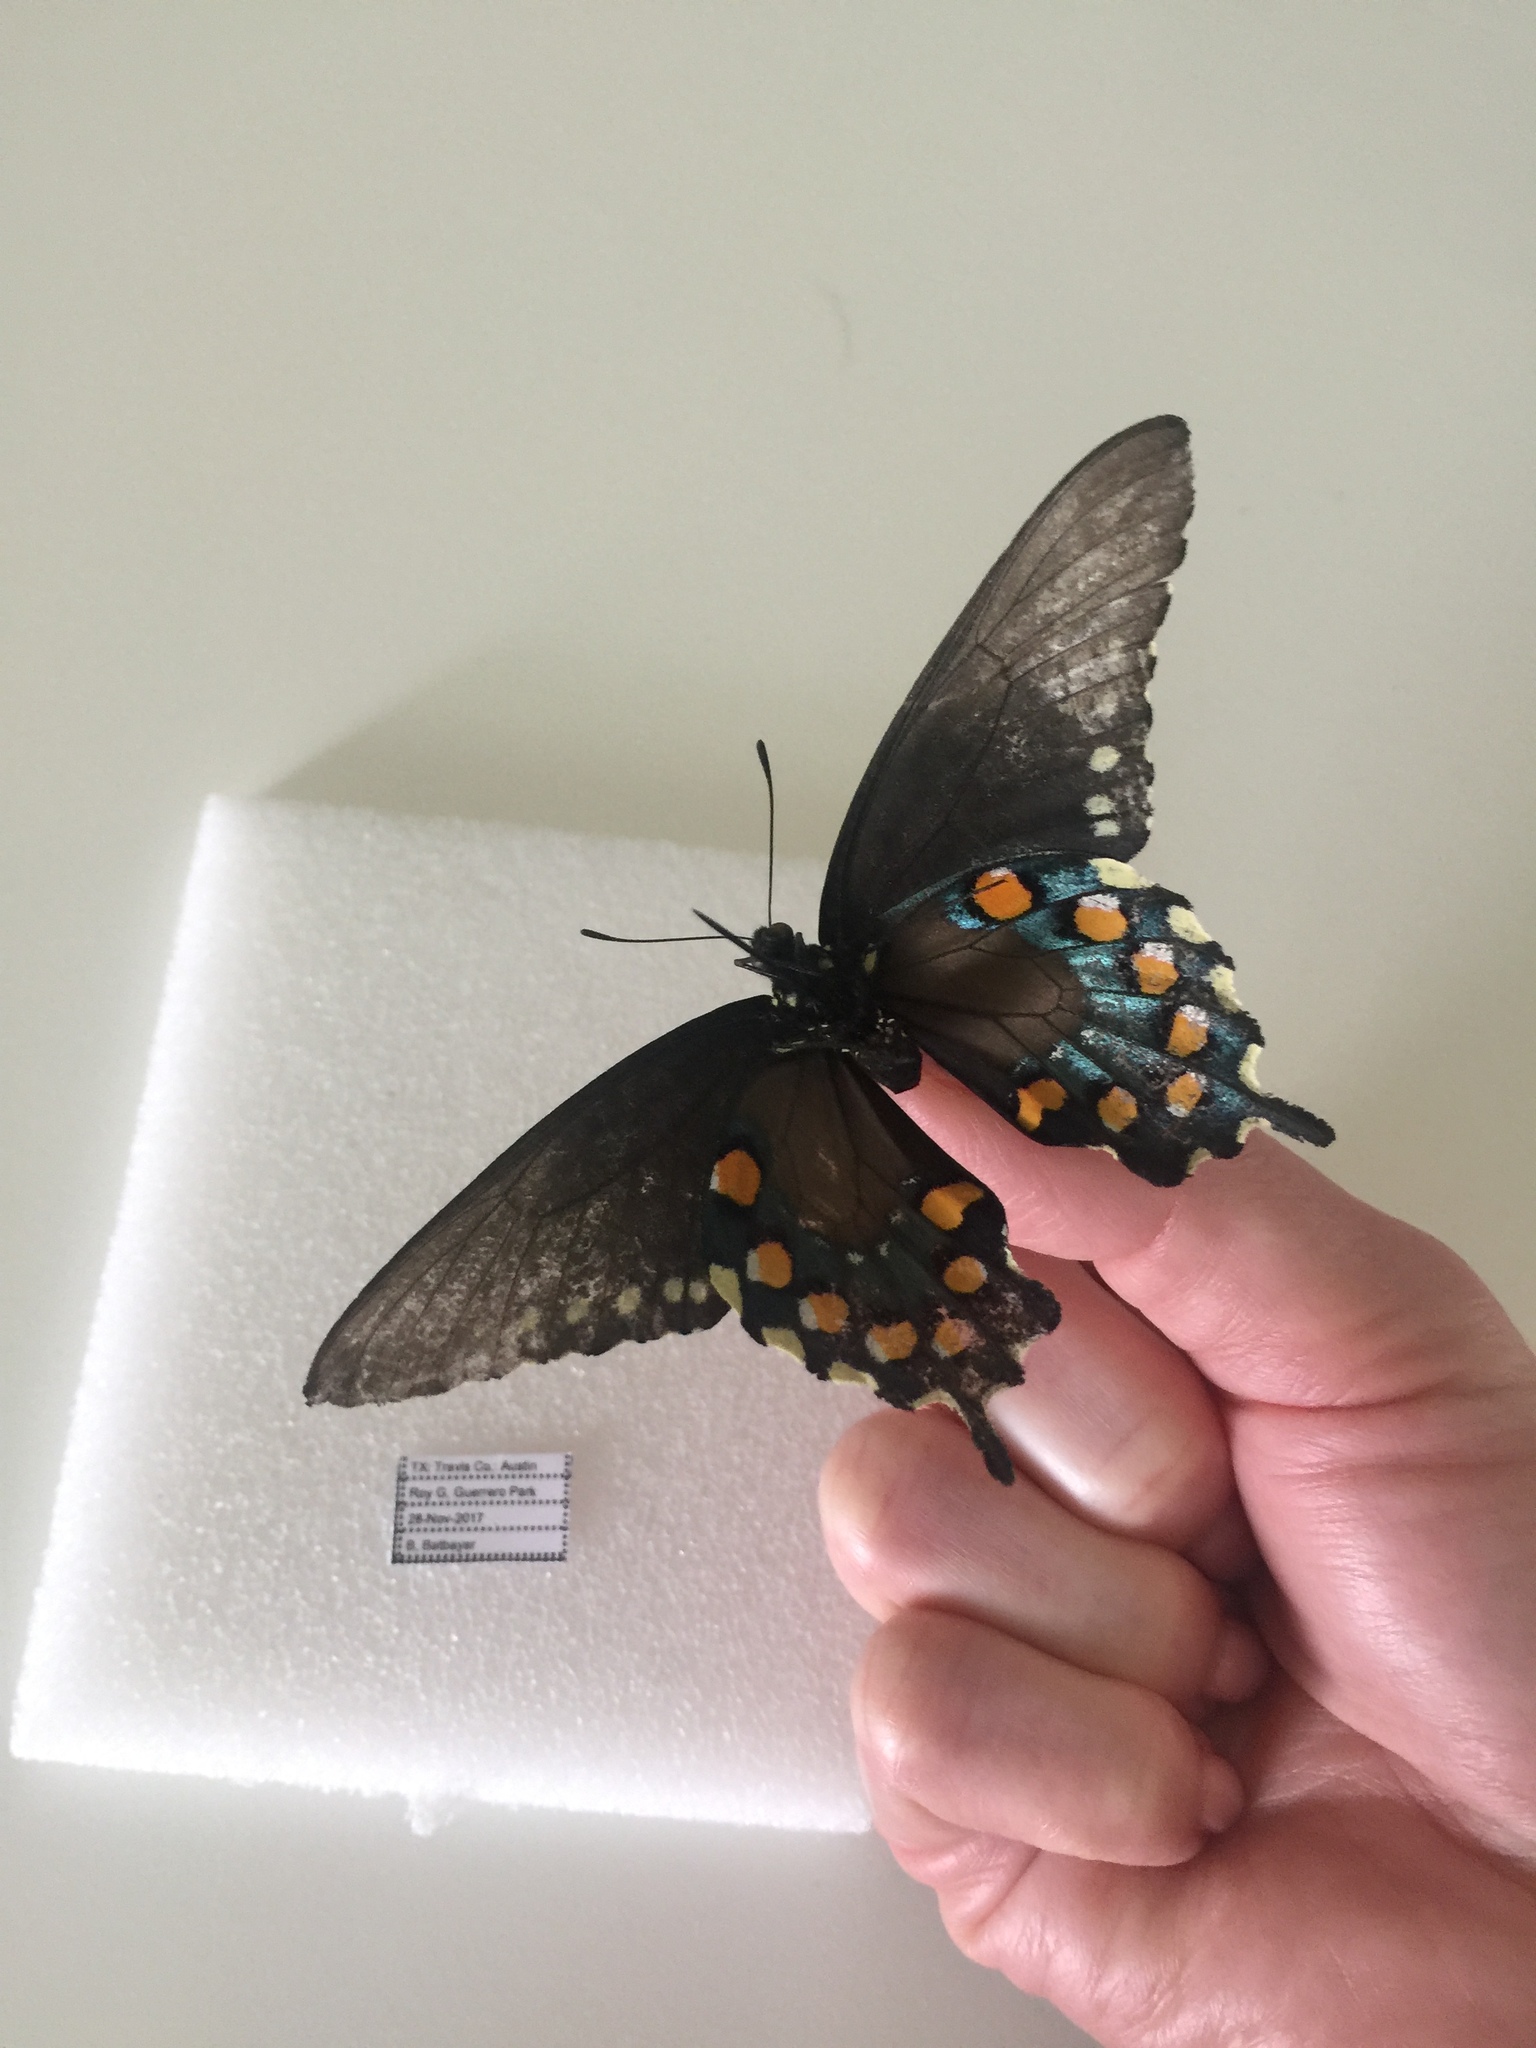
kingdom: Animalia
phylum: Arthropoda
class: Insecta
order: Lepidoptera
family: Papilionidae
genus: Battus
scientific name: Battus philenor
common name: Pipevine swallowtail
